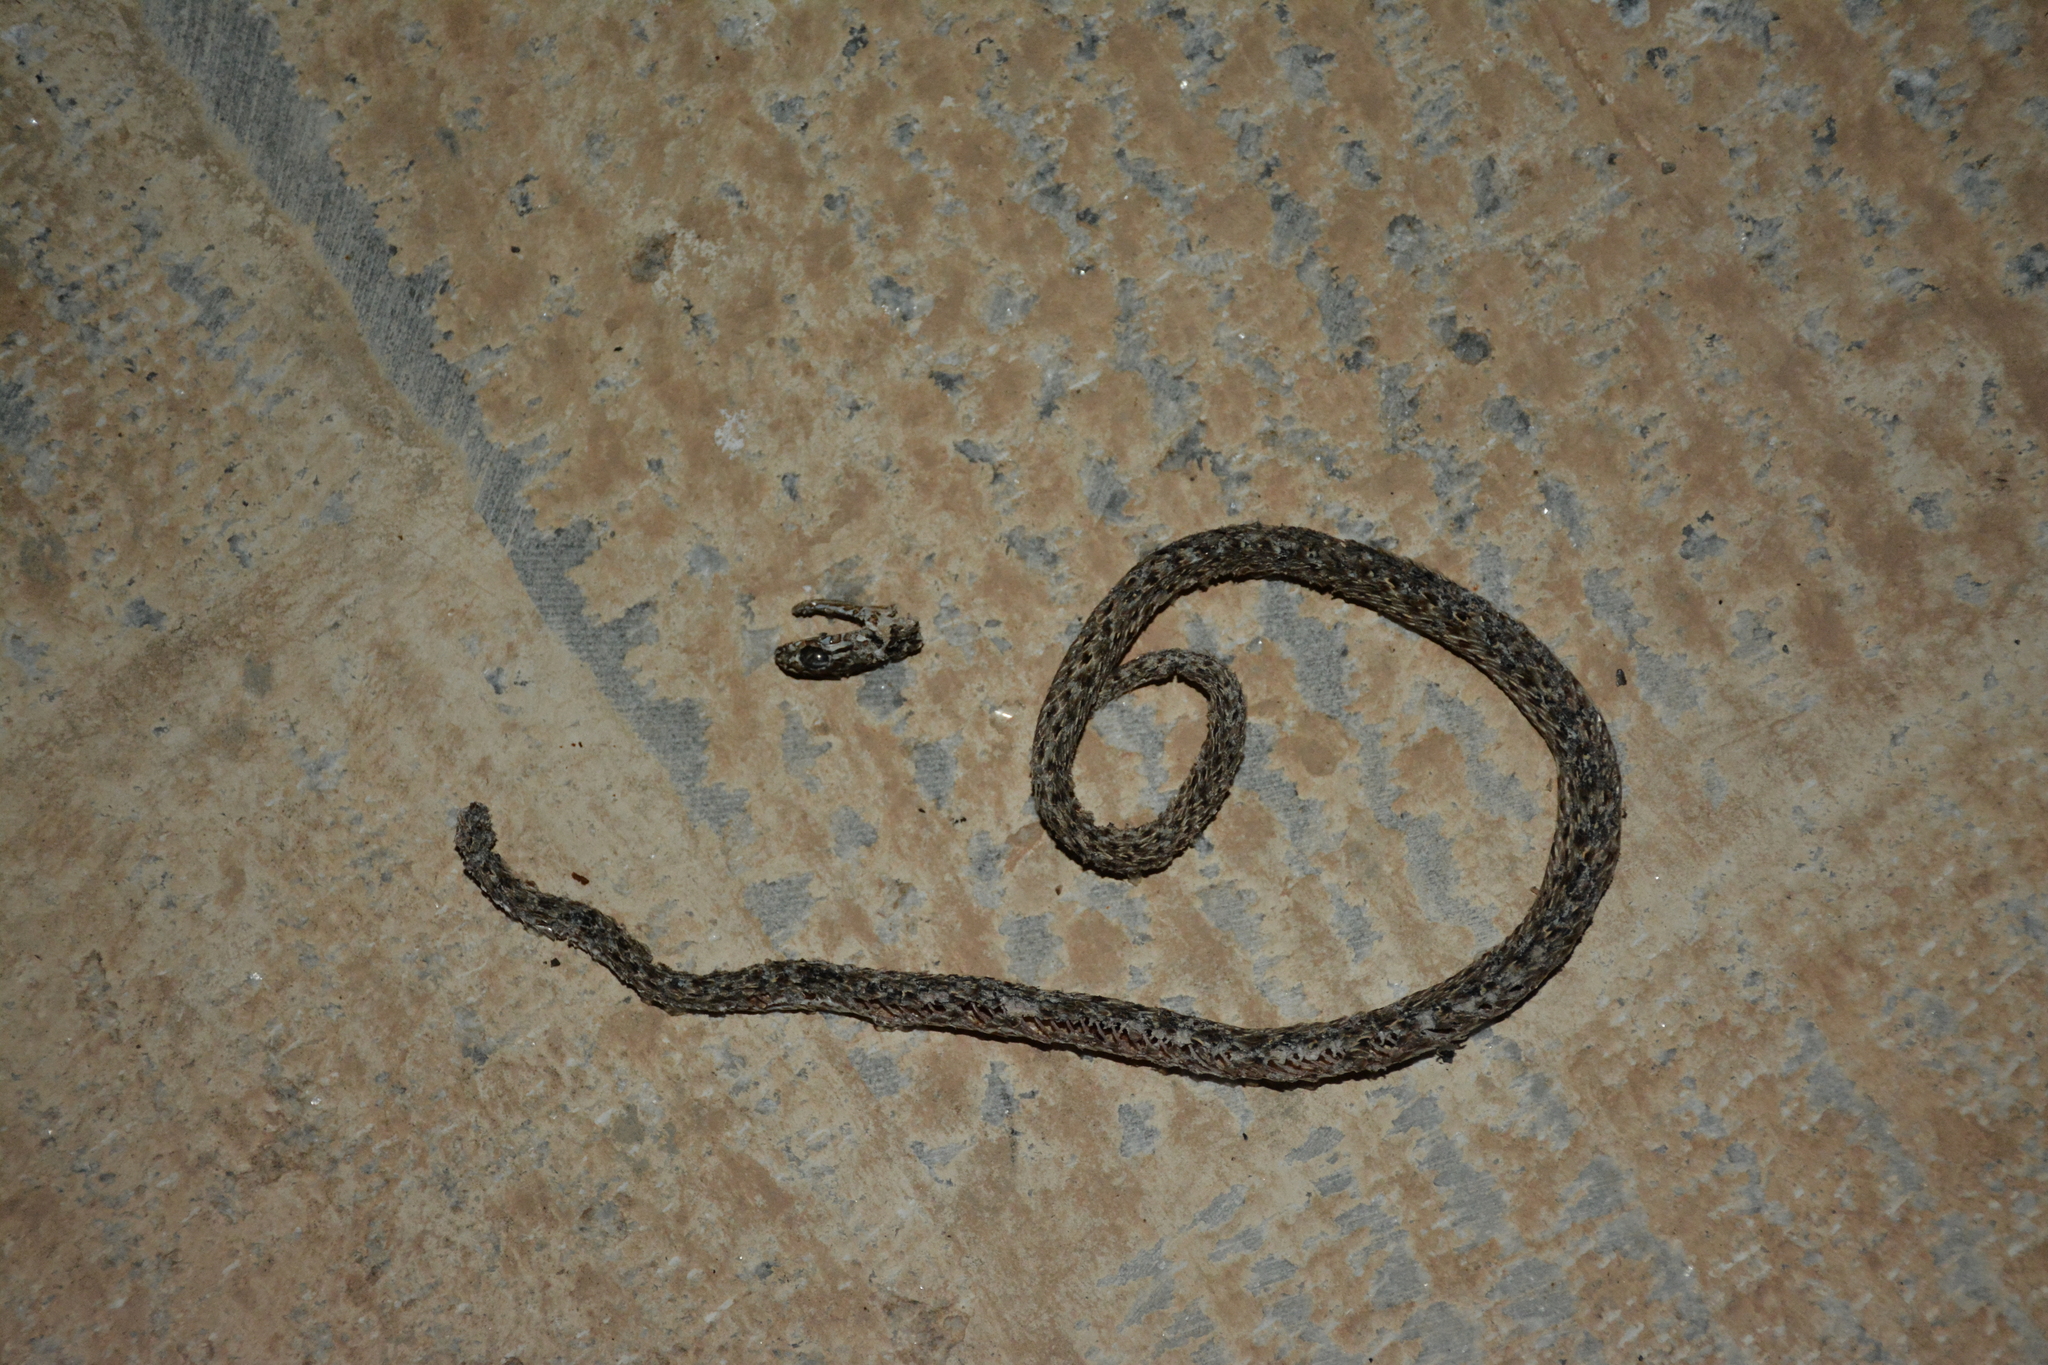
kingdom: Animalia
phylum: Chordata
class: Squamata
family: Psammophiidae
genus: Malpolon
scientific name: Malpolon insignitus
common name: Eastern montpellier snake
